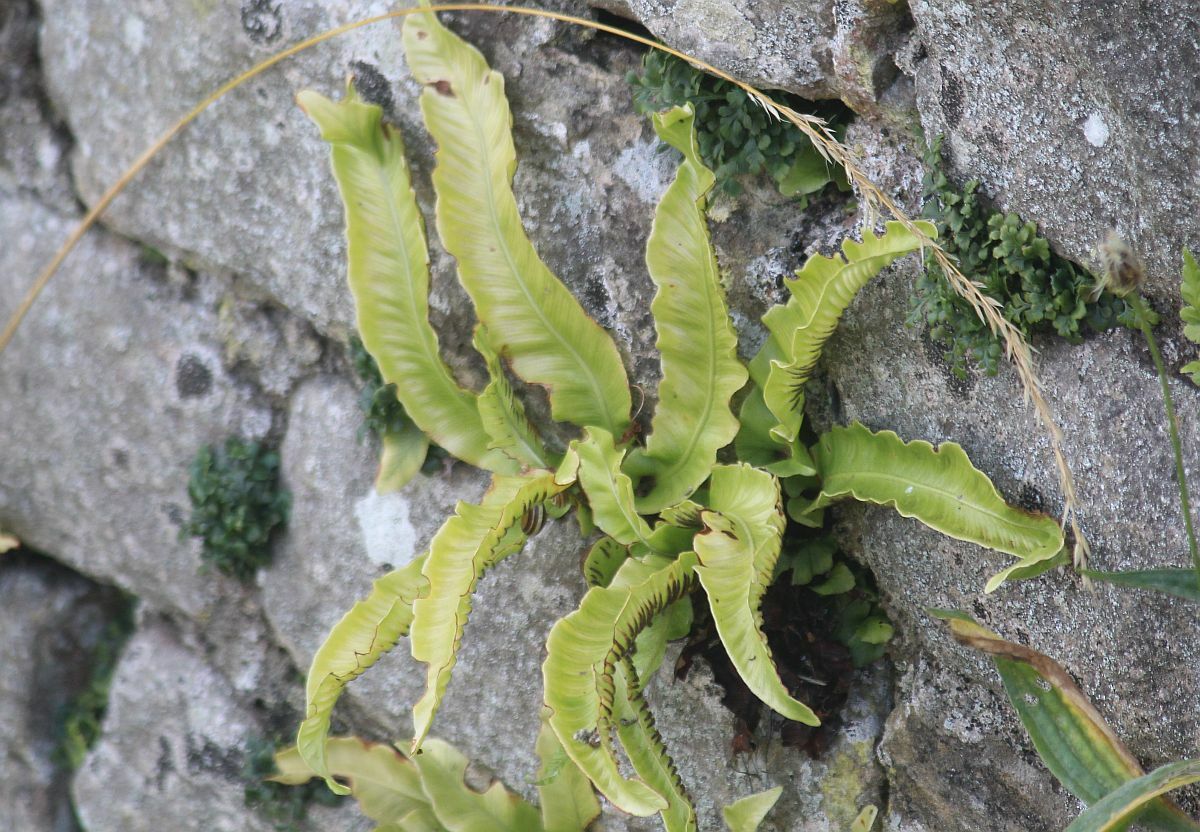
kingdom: Plantae
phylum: Tracheophyta
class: Polypodiopsida
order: Polypodiales
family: Aspleniaceae
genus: Asplenium
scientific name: Asplenium scolopendrium
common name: Hart's-tongue fern
